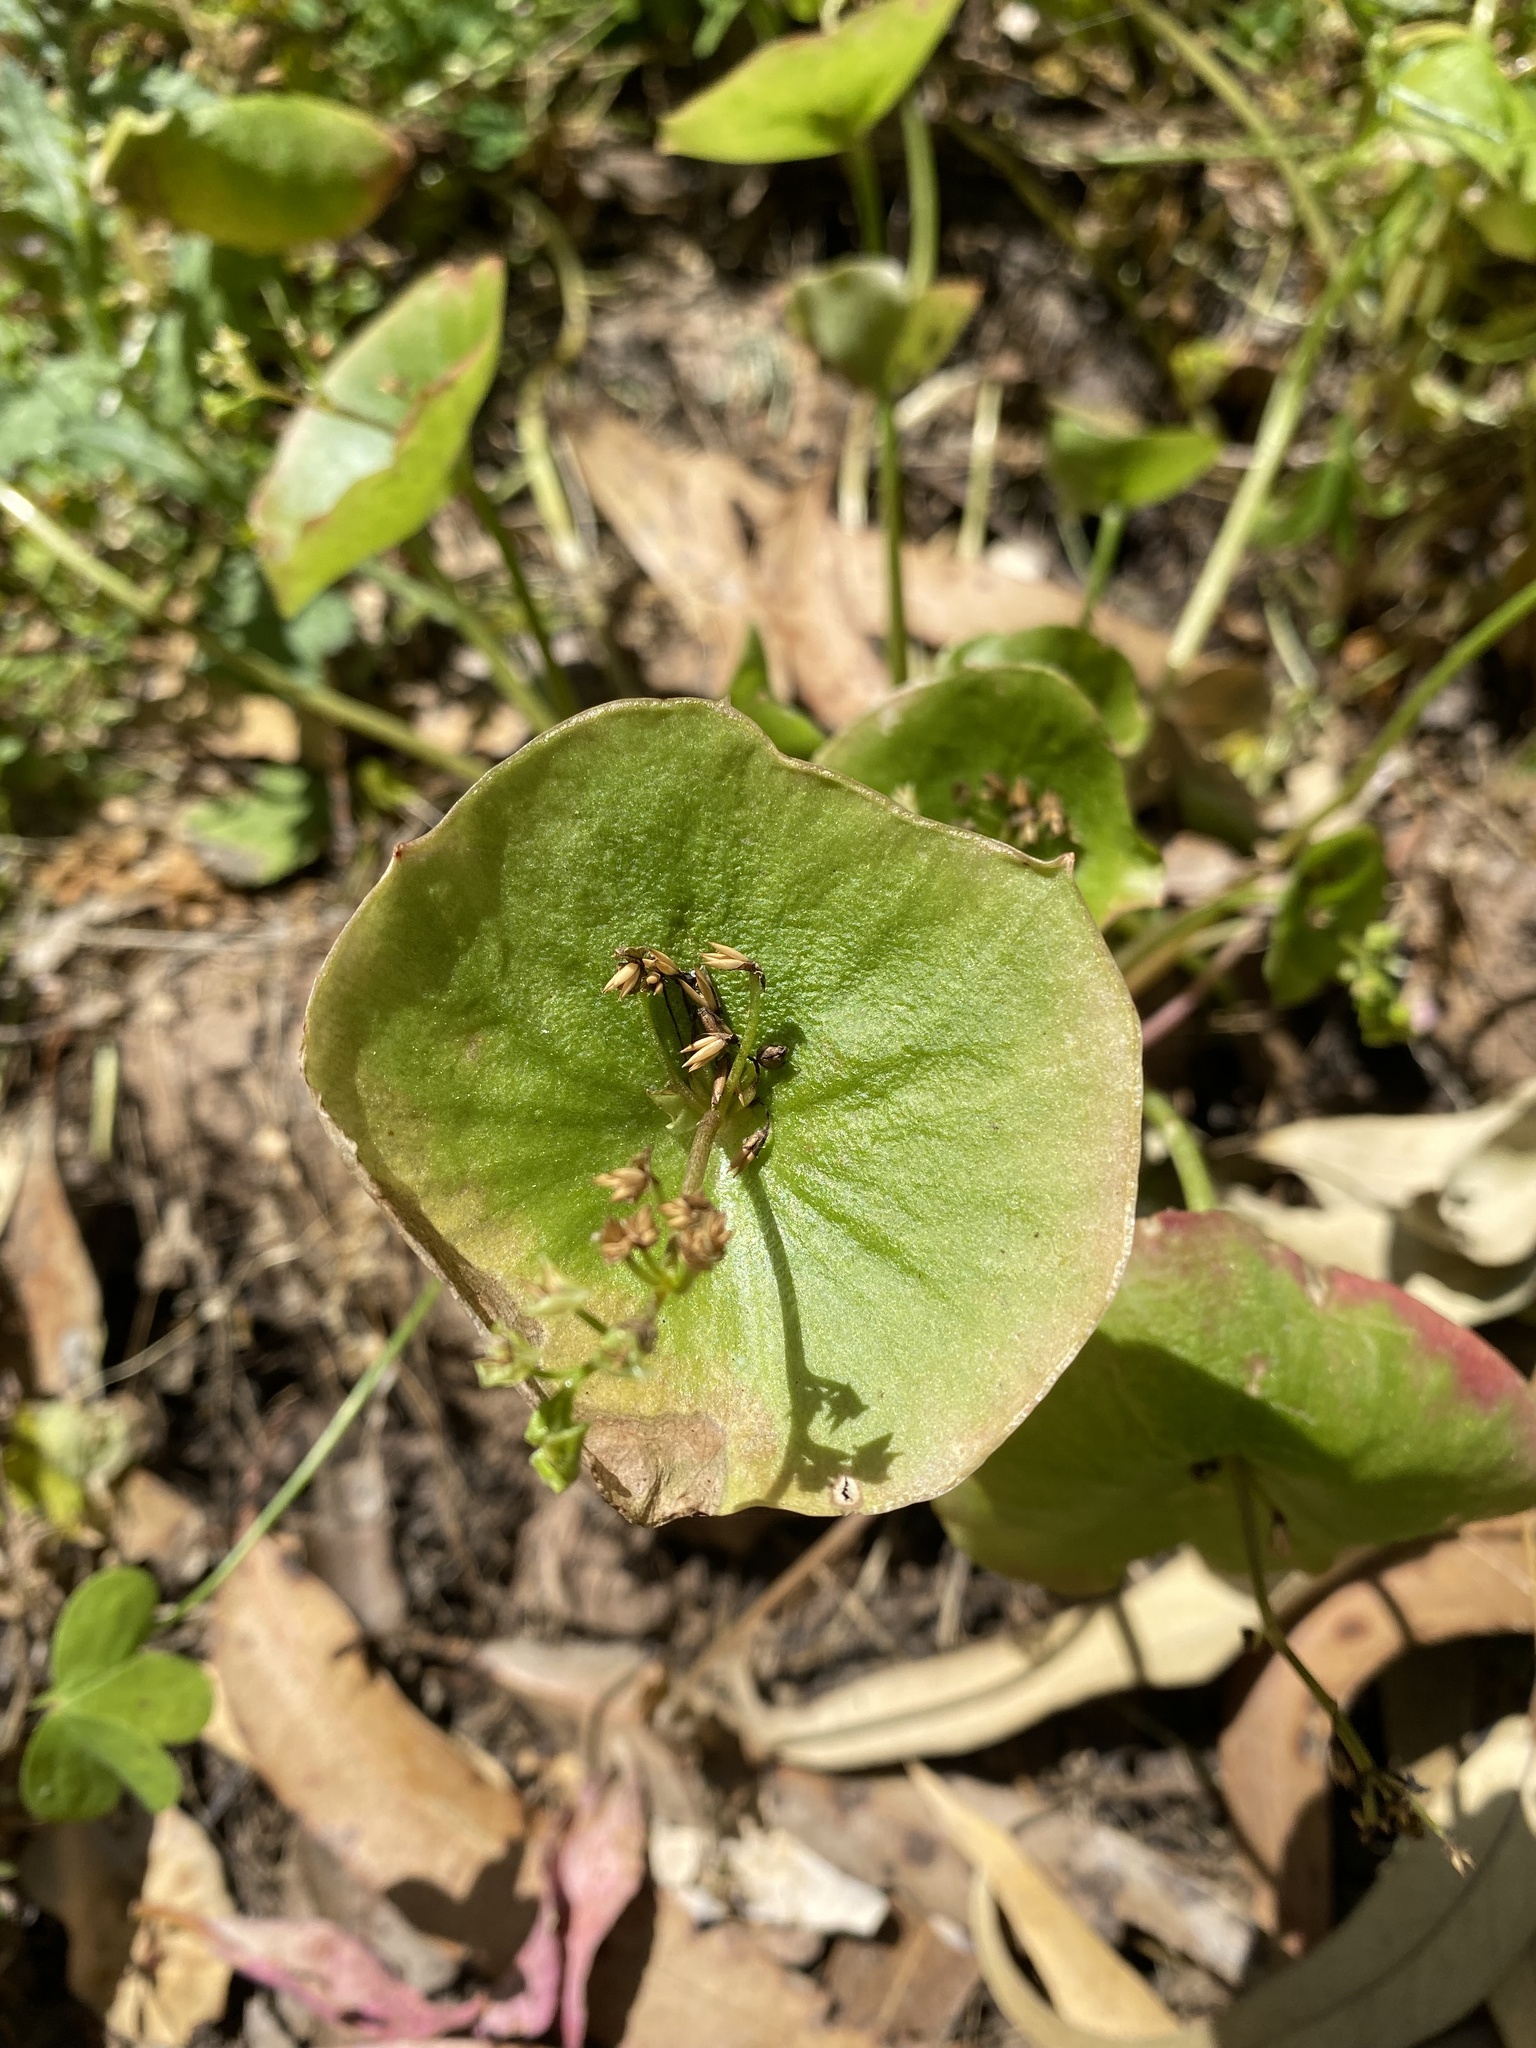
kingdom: Plantae
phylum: Tracheophyta
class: Magnoliopsida
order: Caryophyllales
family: Montiaceae
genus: Claytonia
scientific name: Claytonia perfoliata
